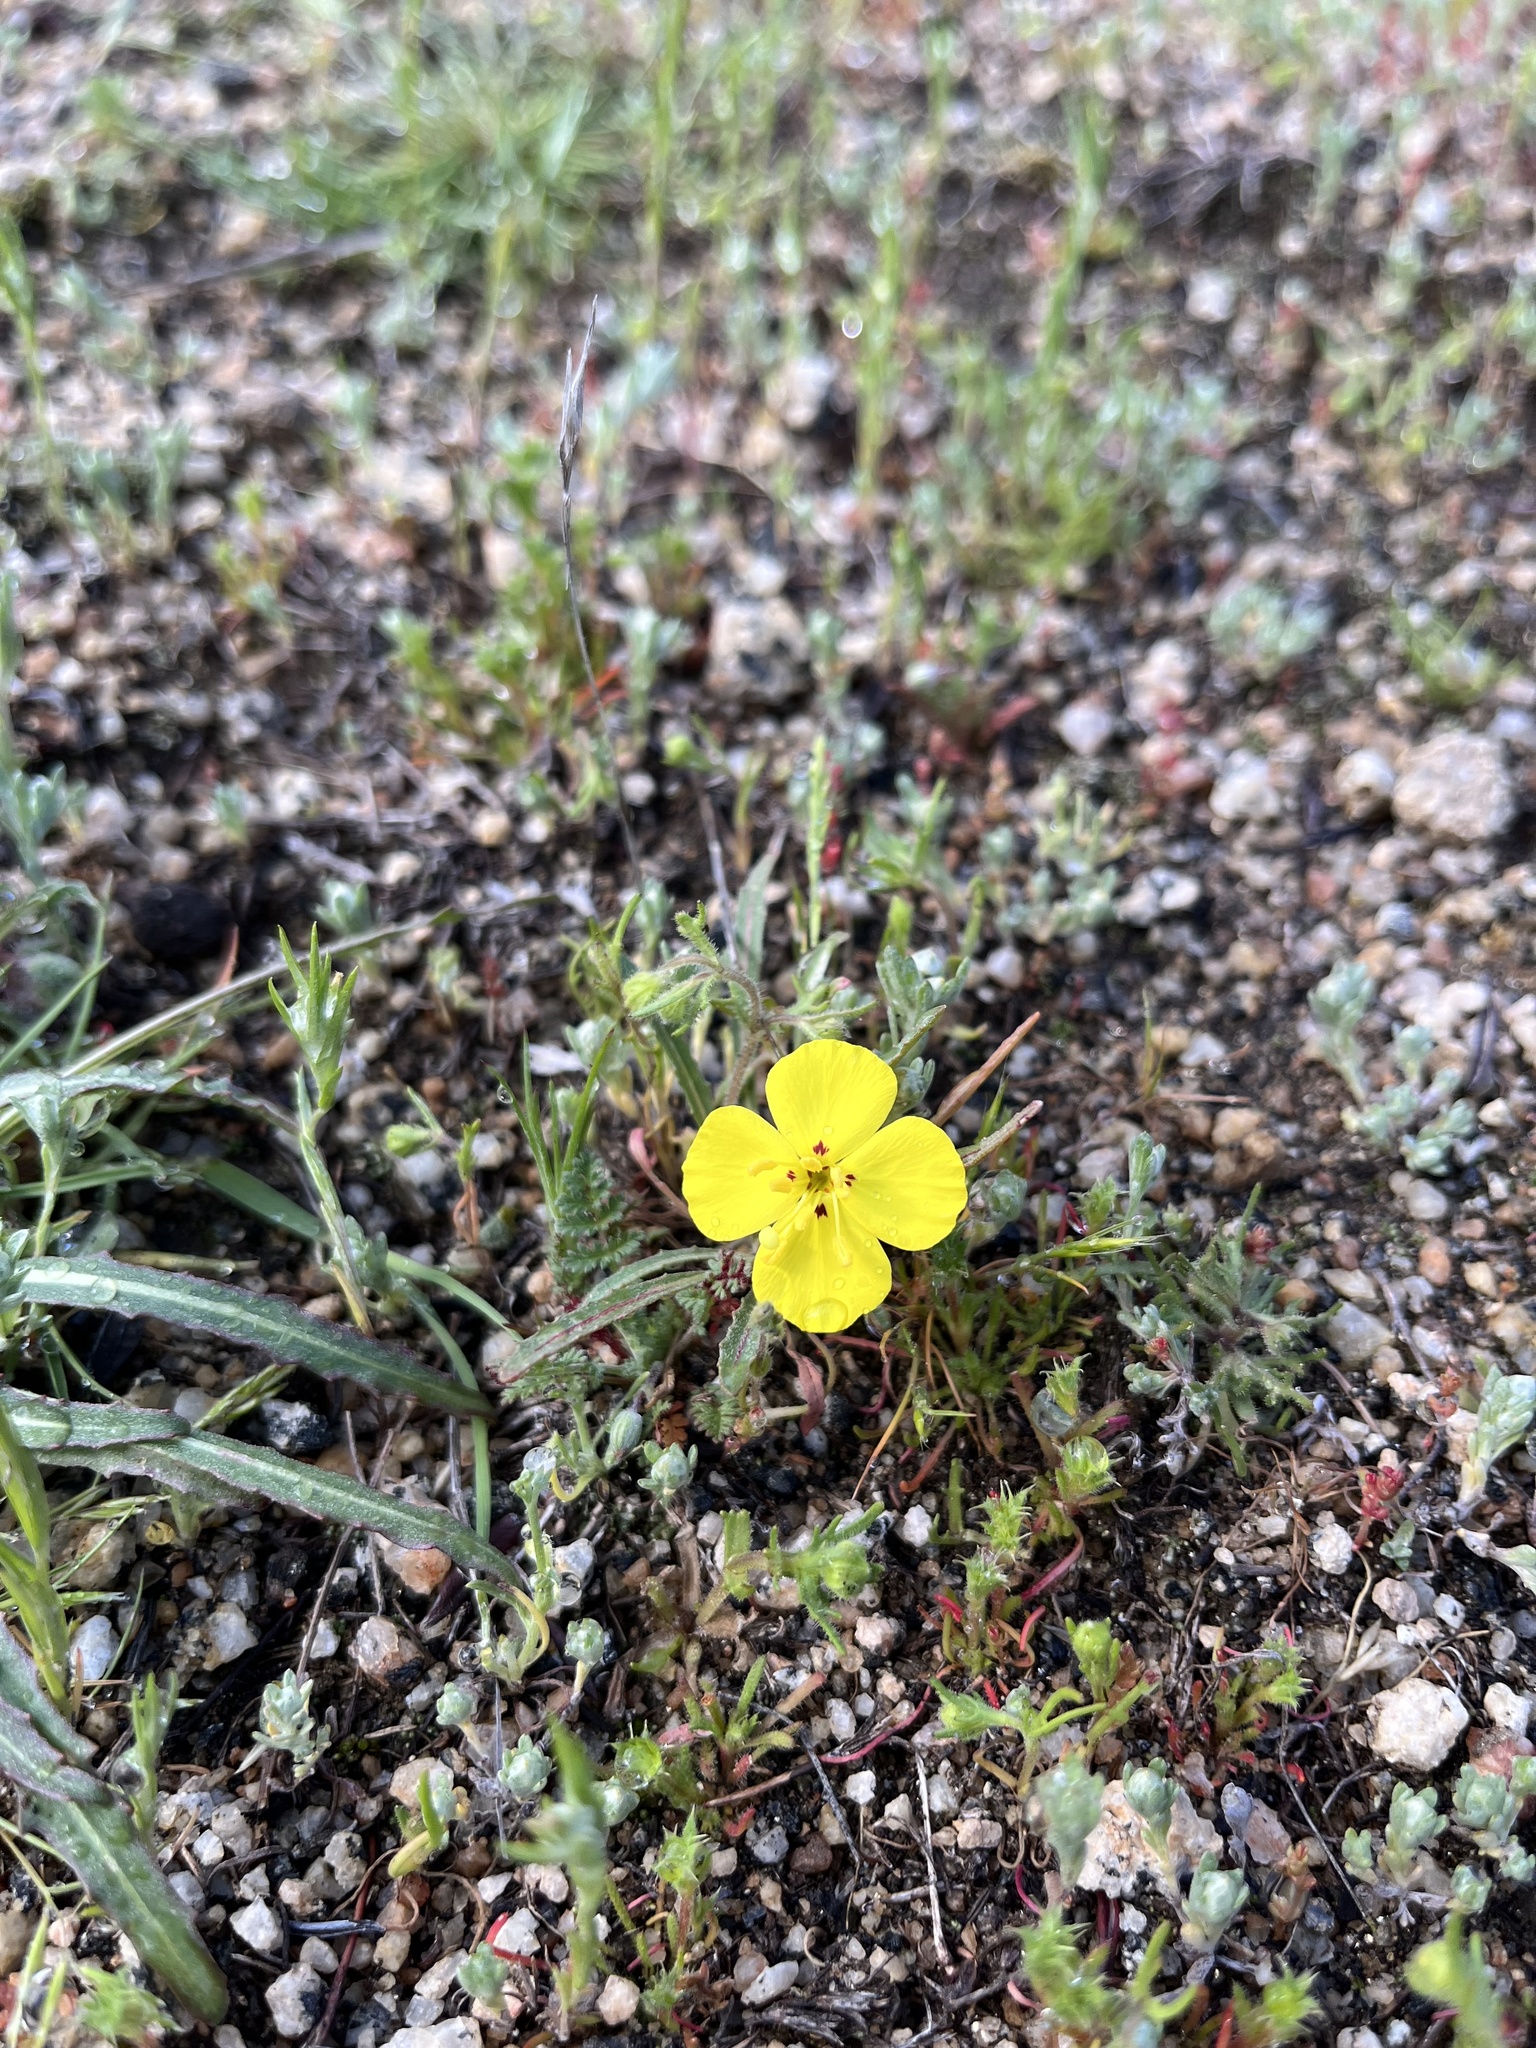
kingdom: Plantae
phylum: Tracheophyta
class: Magnoliopsida
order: Myrtales
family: Onagraceae
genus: Camissoniopsis
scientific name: Camissoniopsis bistorta
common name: Southern suncup
